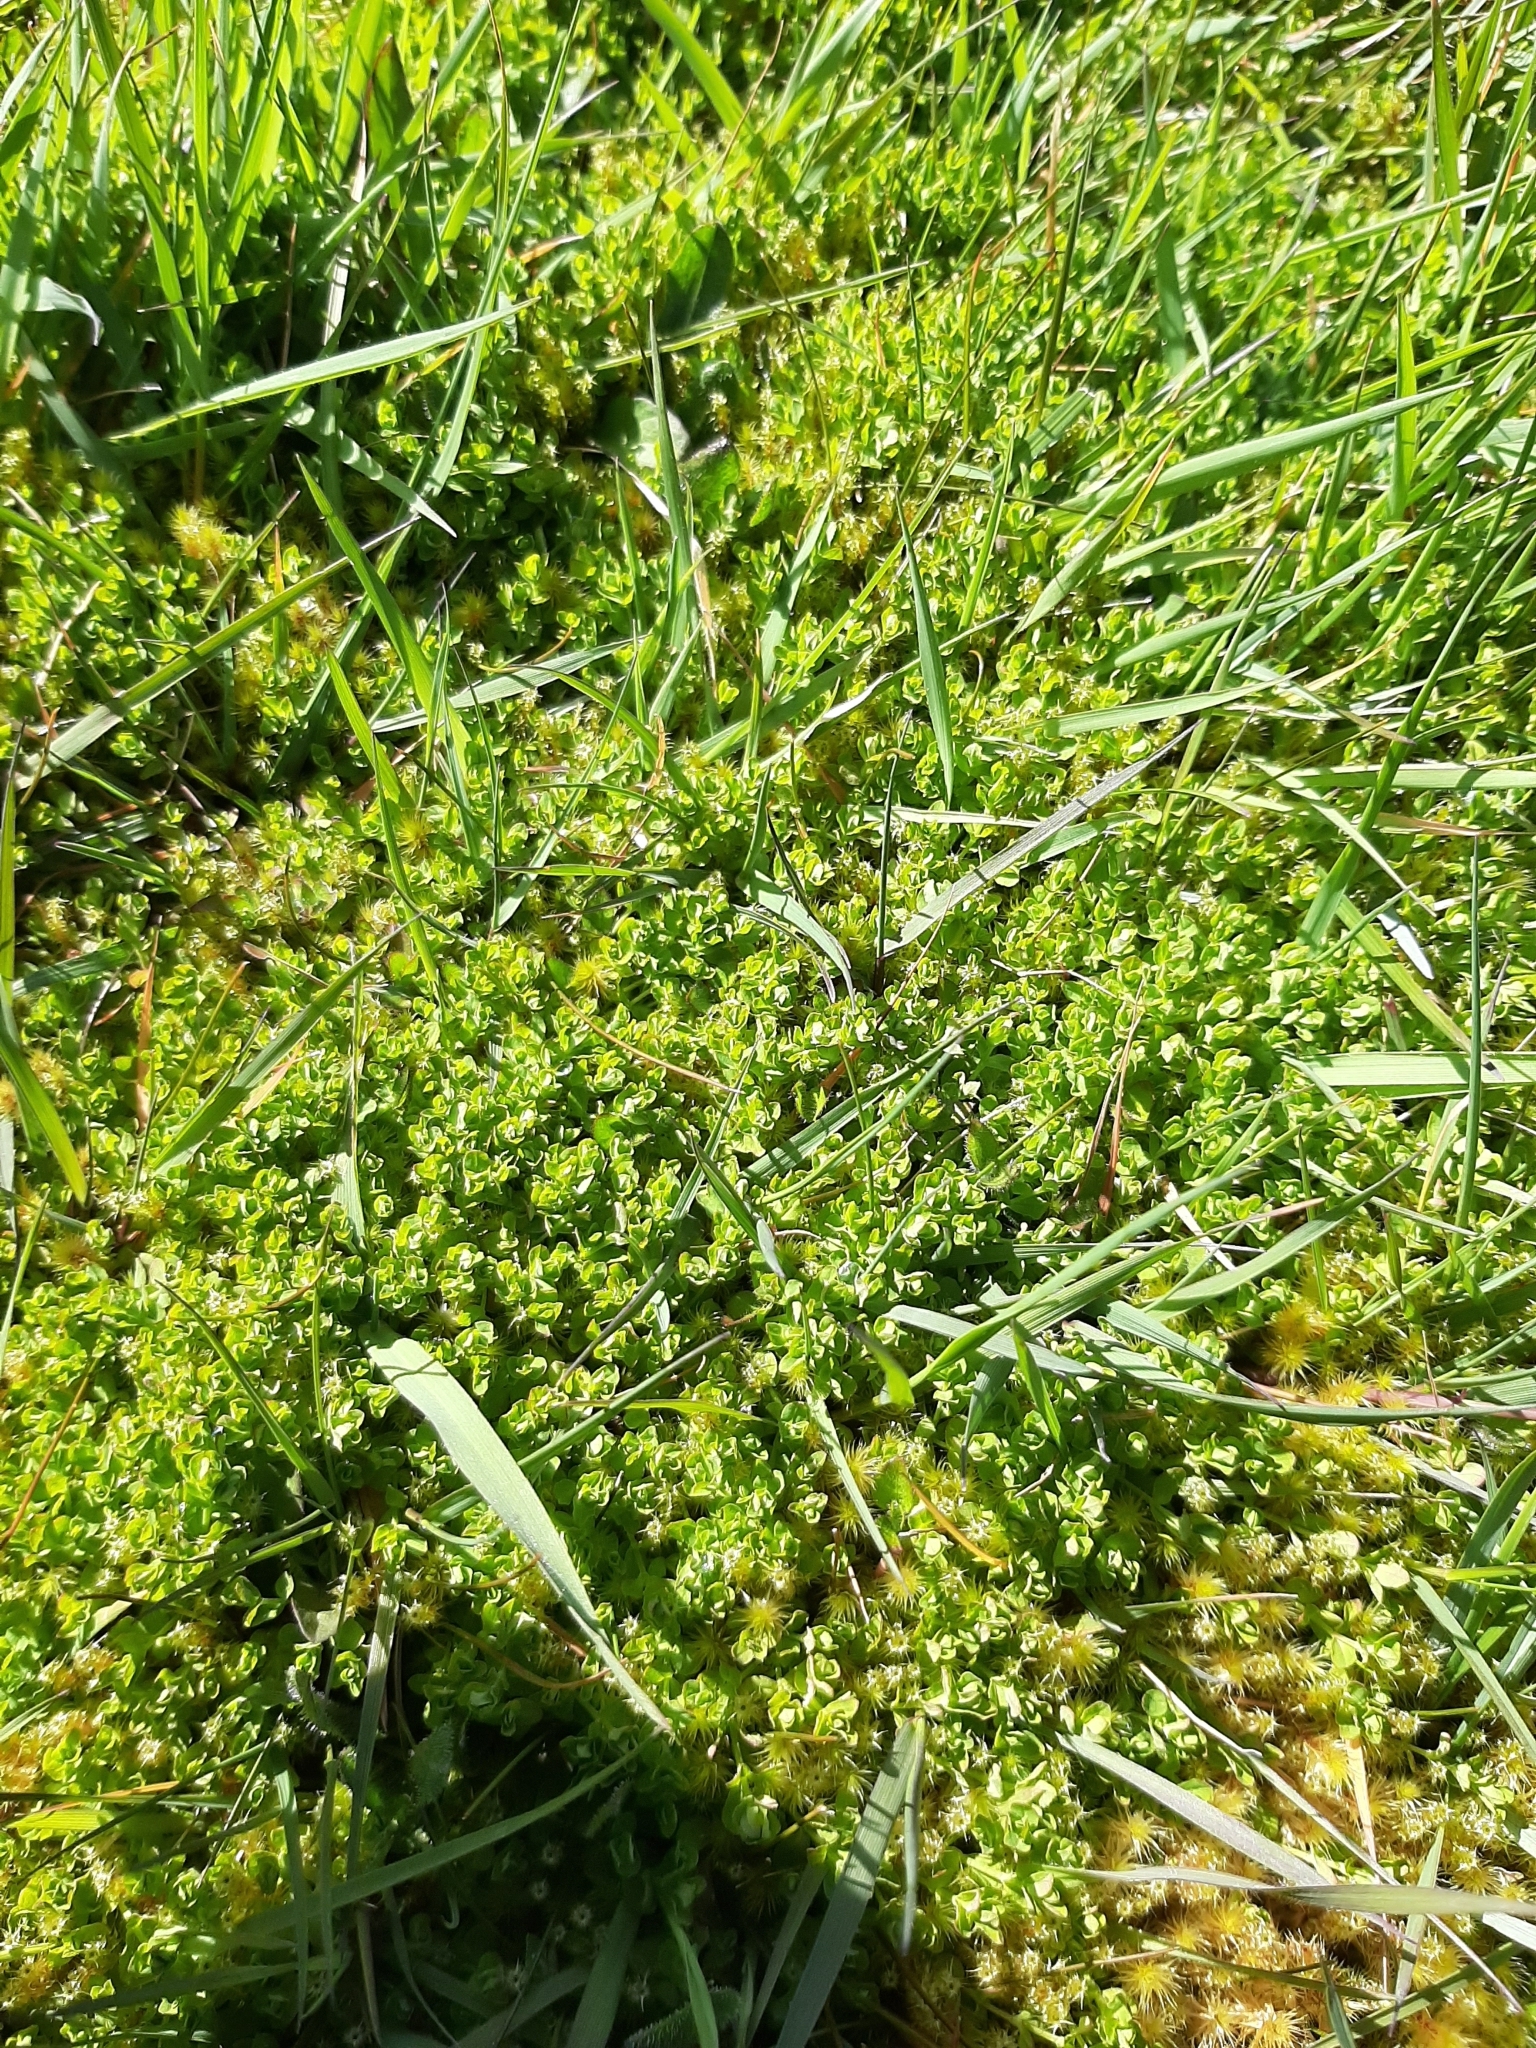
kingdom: Plantae
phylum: Tracheophyta
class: Magnoliopsida
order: Malpighiales
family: Hypericaceae
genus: Hypericum
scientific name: Hypericum japonicum
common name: Matted st. john's-wort
